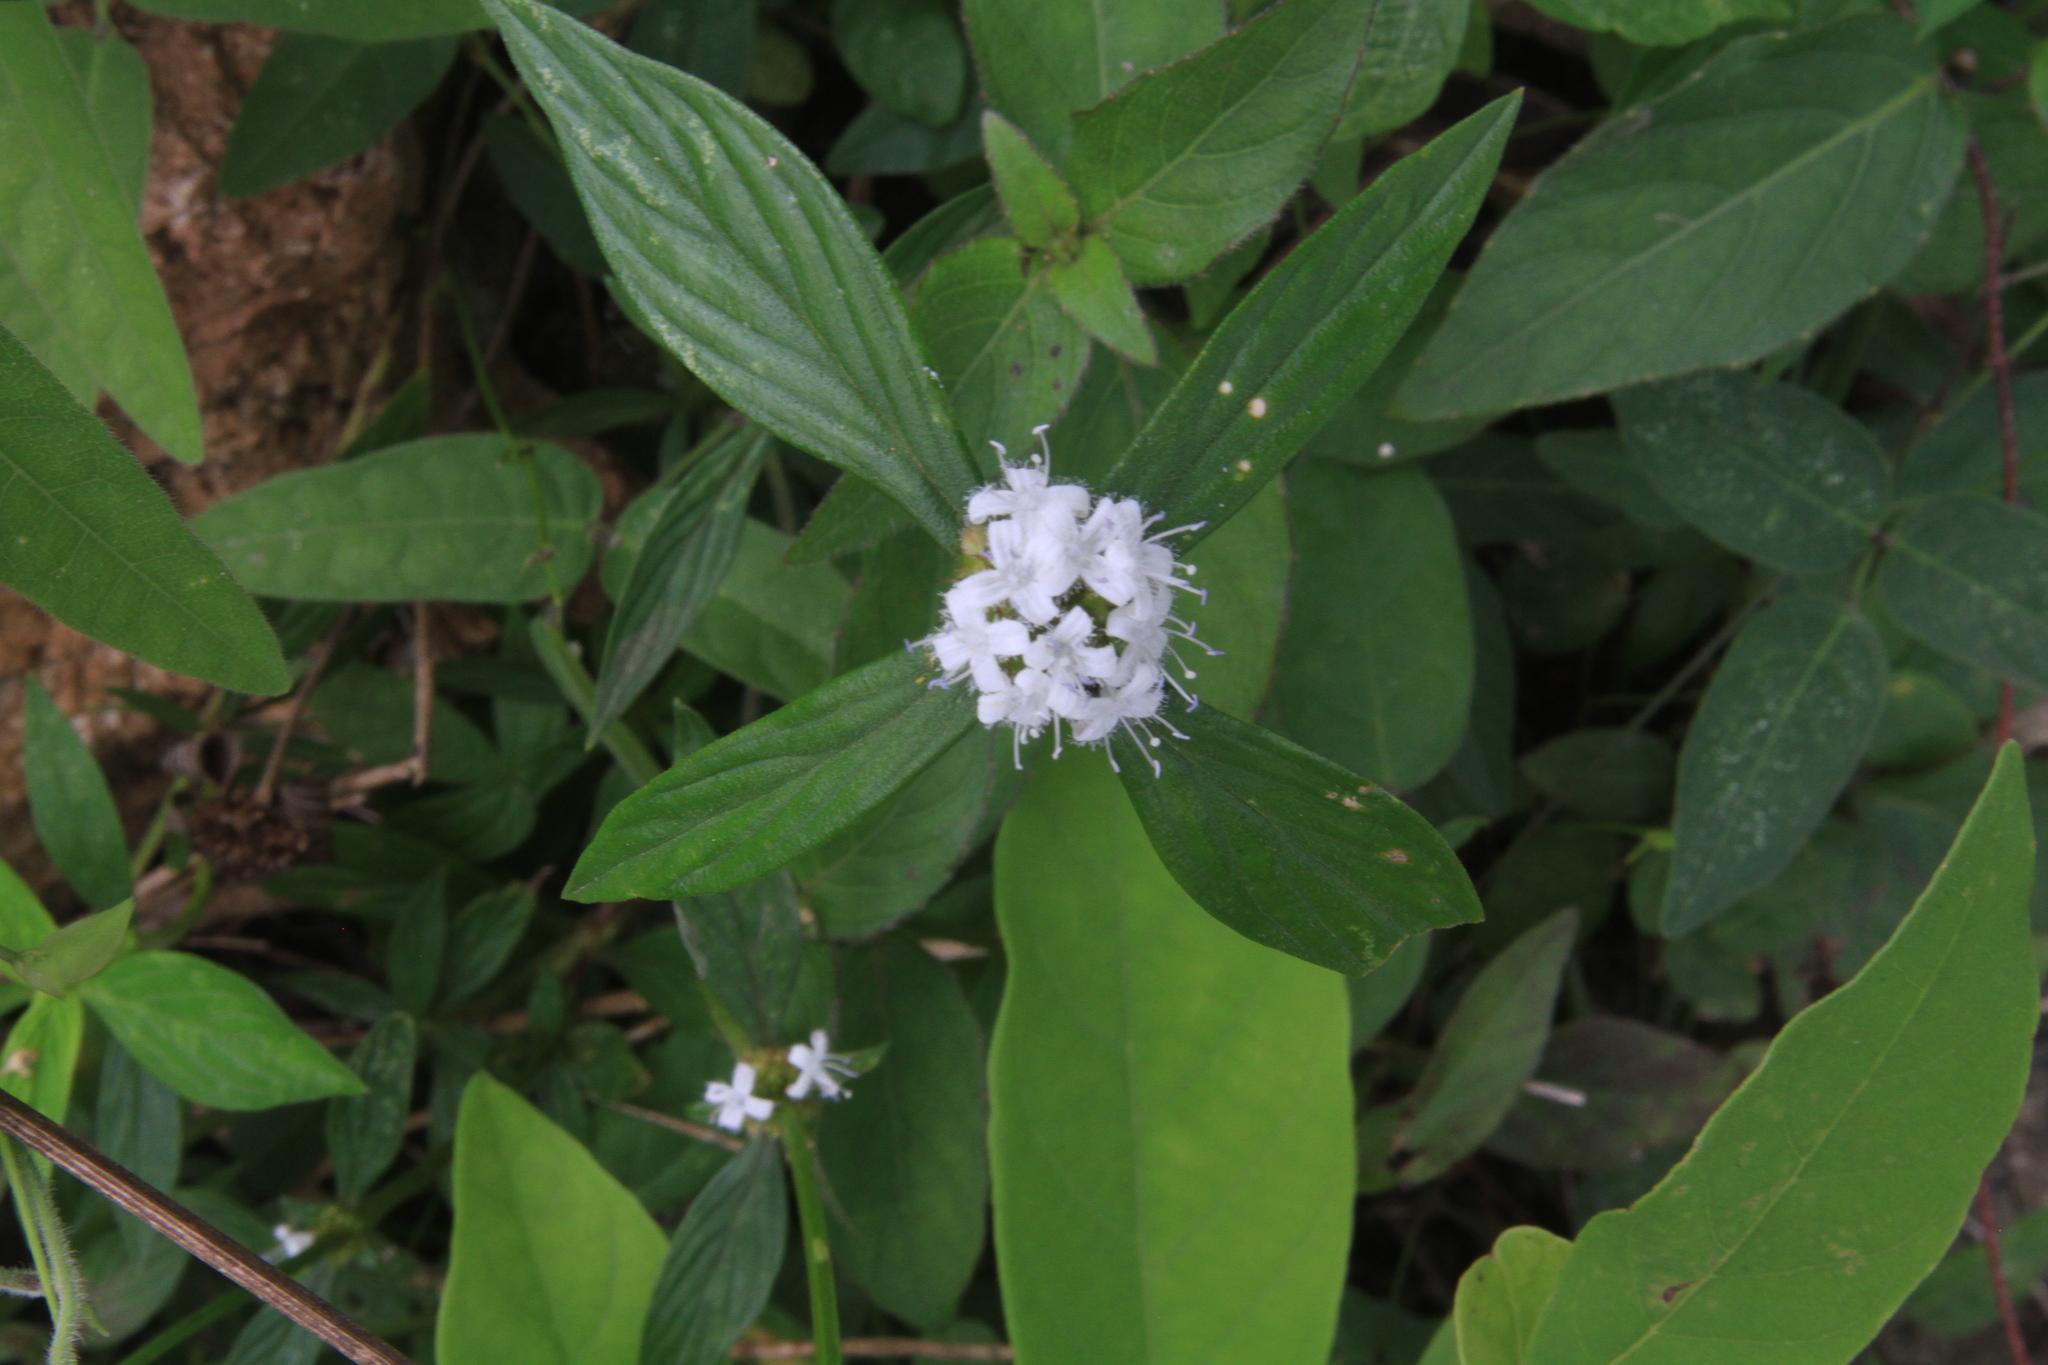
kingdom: Plantae
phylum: Tracheophyta
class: Magnoliopsida
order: Gentianales
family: Rubiaceae
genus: Spermacoce
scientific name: Spermacoce remota
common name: Woodland false buttonweed
